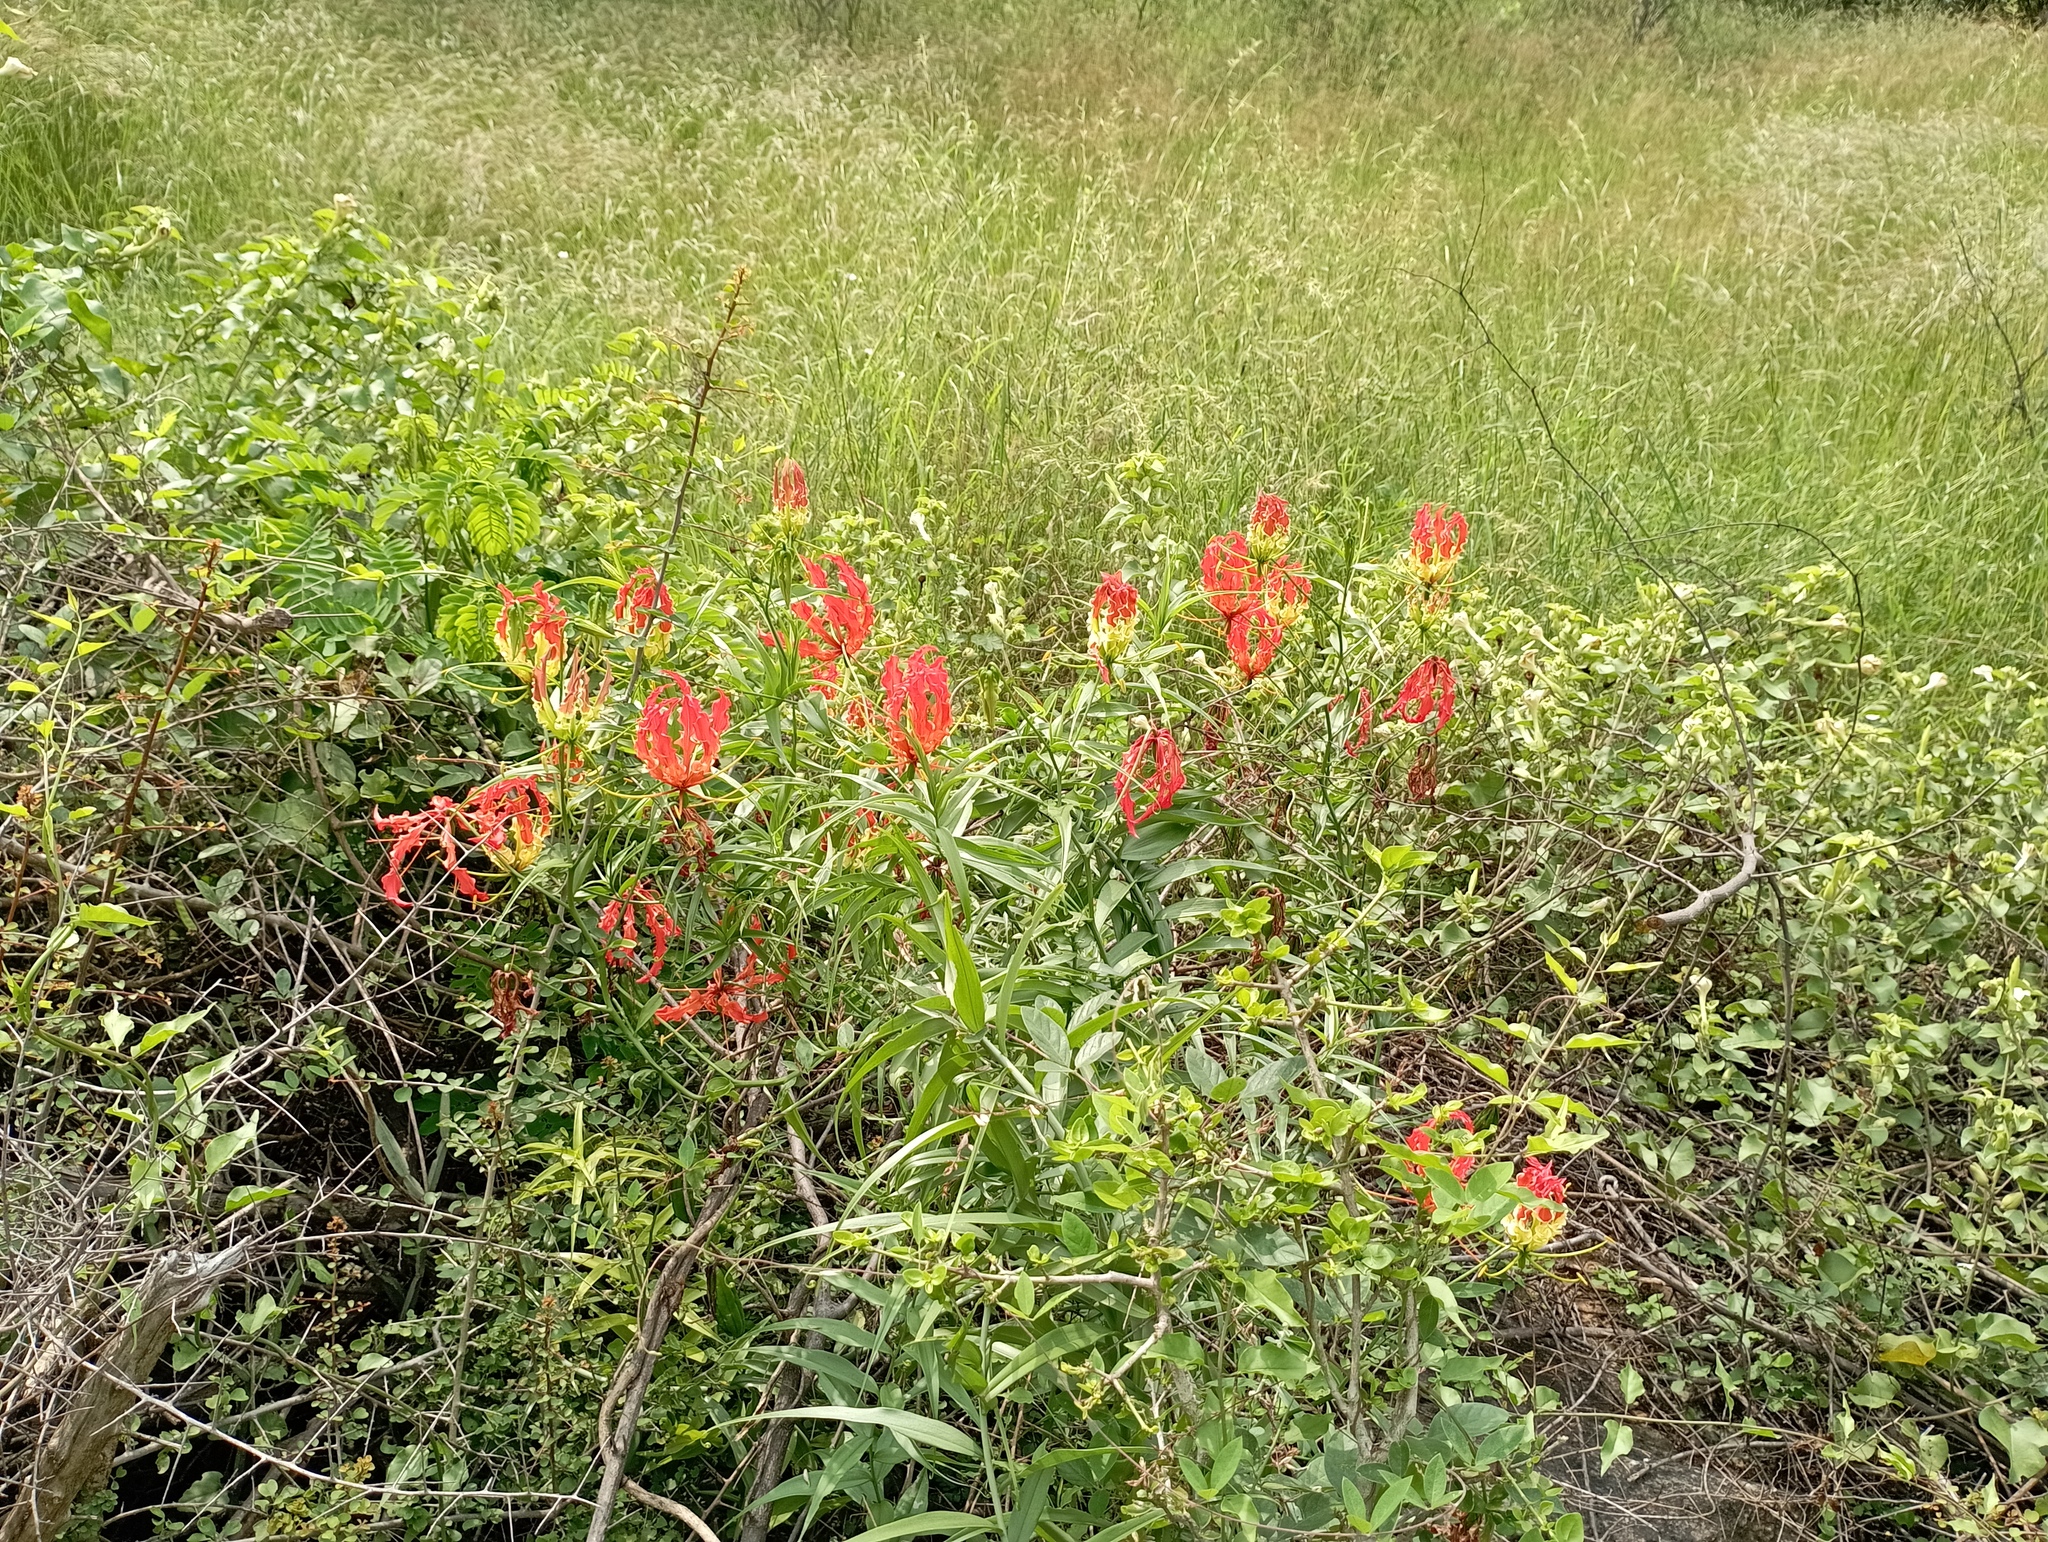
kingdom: Plantae
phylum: Tracheophyta
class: Liliopsida
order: Liliales
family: Colchicaceae
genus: Gloriosa
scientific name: Gloriosa superba
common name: Flame lily
